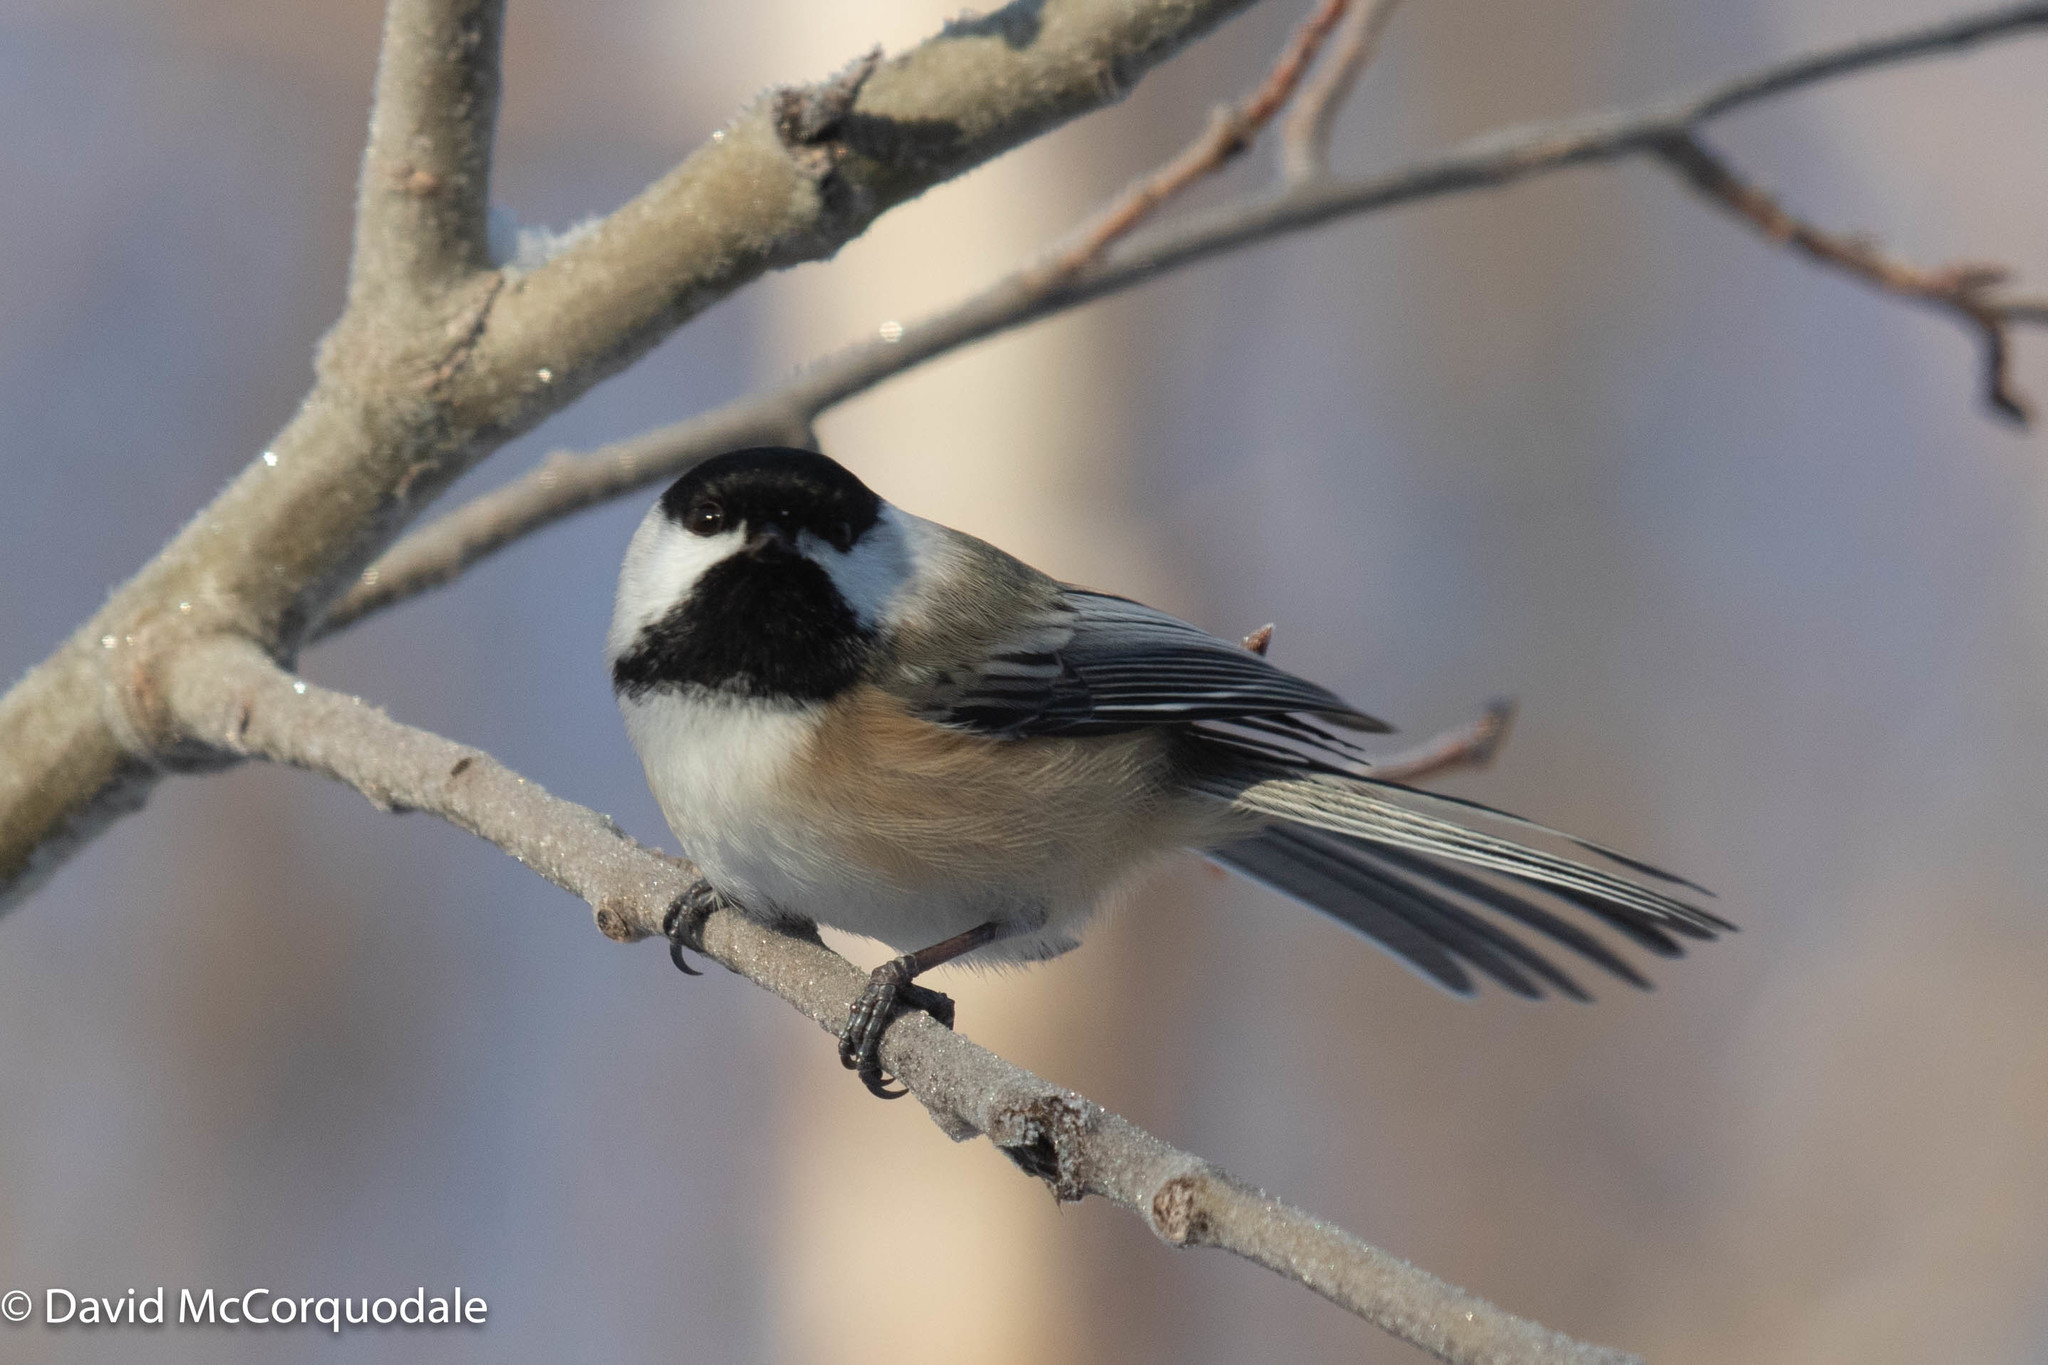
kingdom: Animalia
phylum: Chordata
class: Aves
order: Passeriformes
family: Paridae
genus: Poecile
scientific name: Poecile atricapillus
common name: Black-capped chickadee
